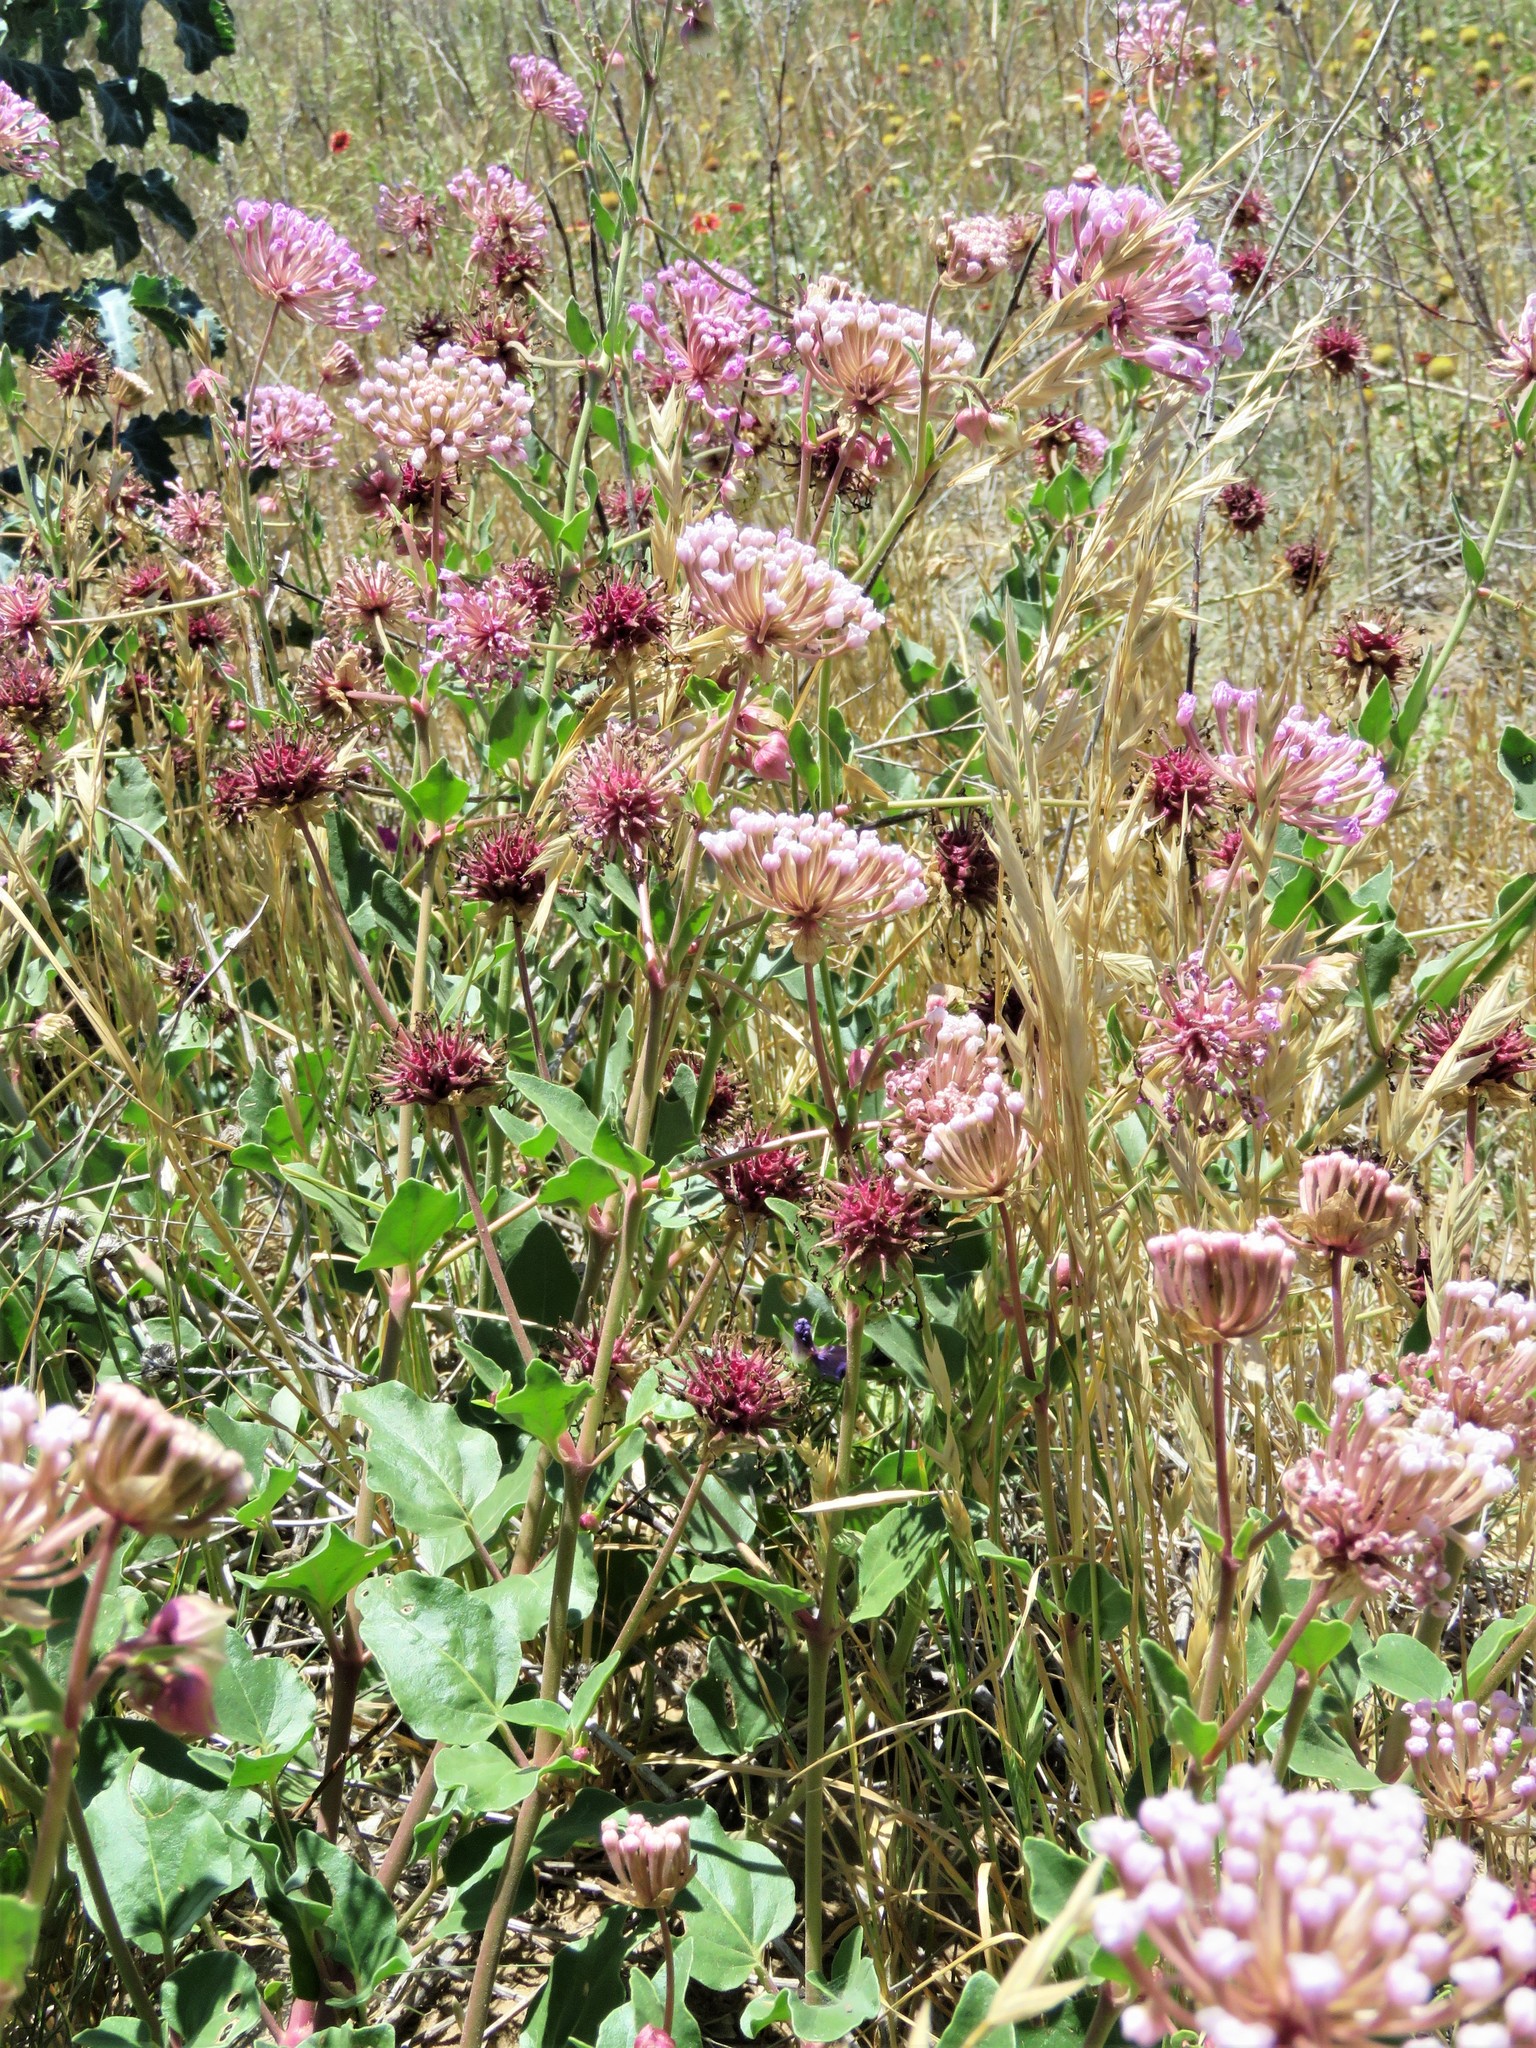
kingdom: Plantae
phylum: Tracheophyta
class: Magnoliopsida
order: Caryophyllales
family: Nyctaginaceae
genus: Abronia
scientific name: Abronia fragrans
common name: Fragrant sand-verbena
